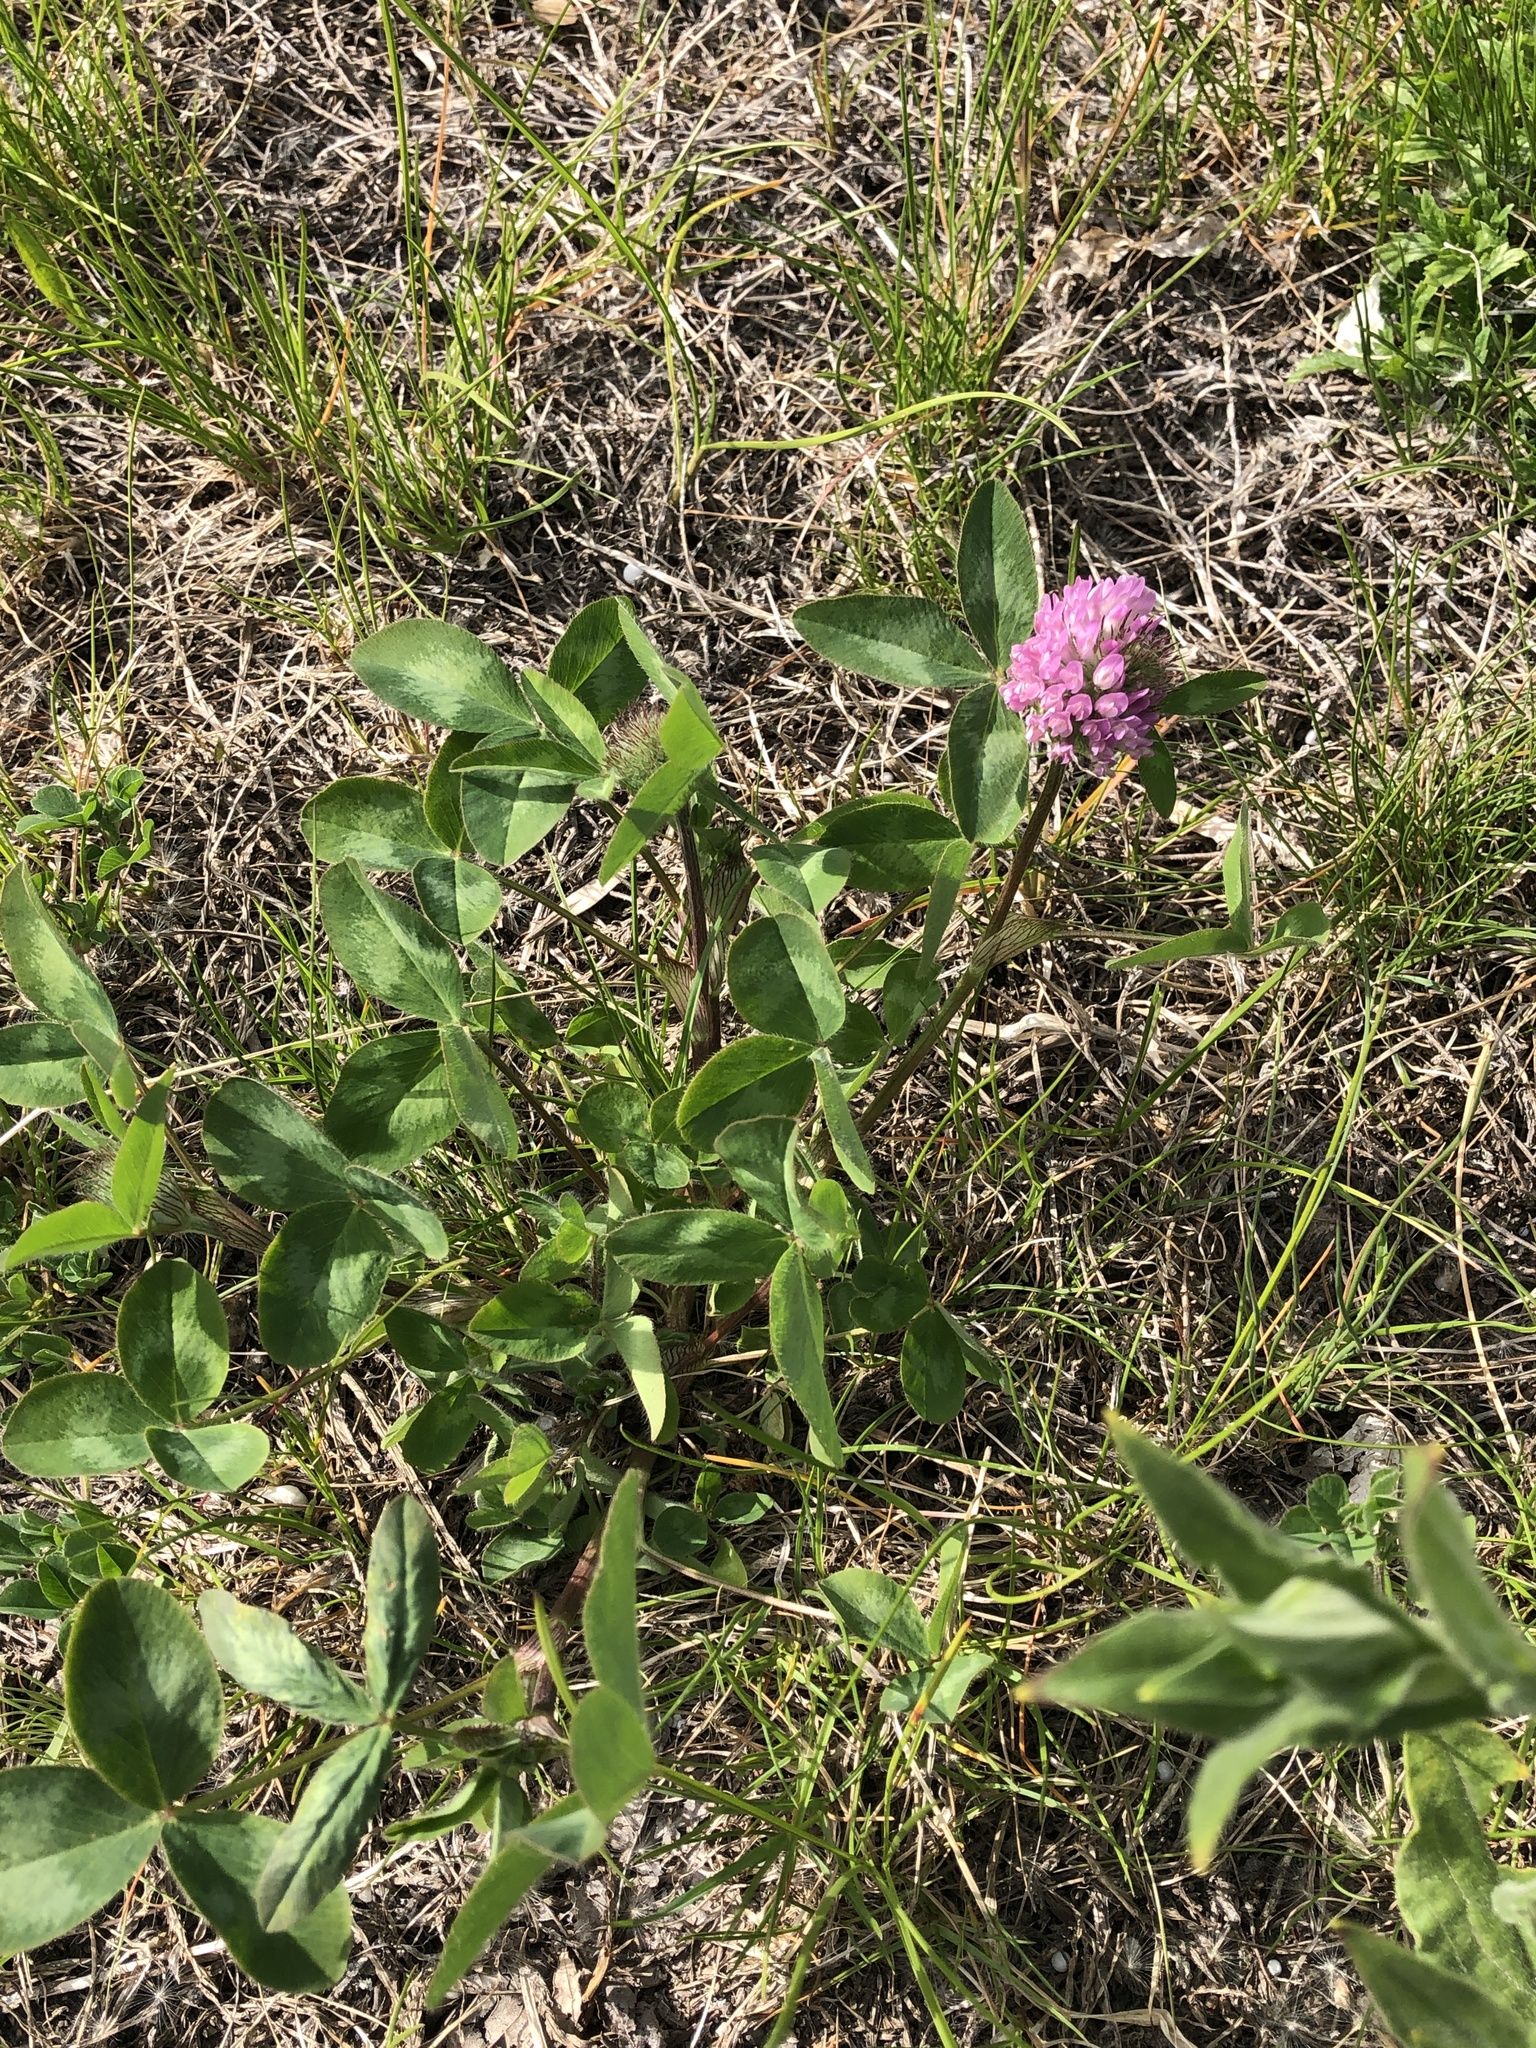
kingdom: Plantae
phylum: Tracheophyta
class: Magnoliopsida
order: Fabales
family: Fabaceae
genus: Trifolium
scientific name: Trifolium pratense
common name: Red clover
